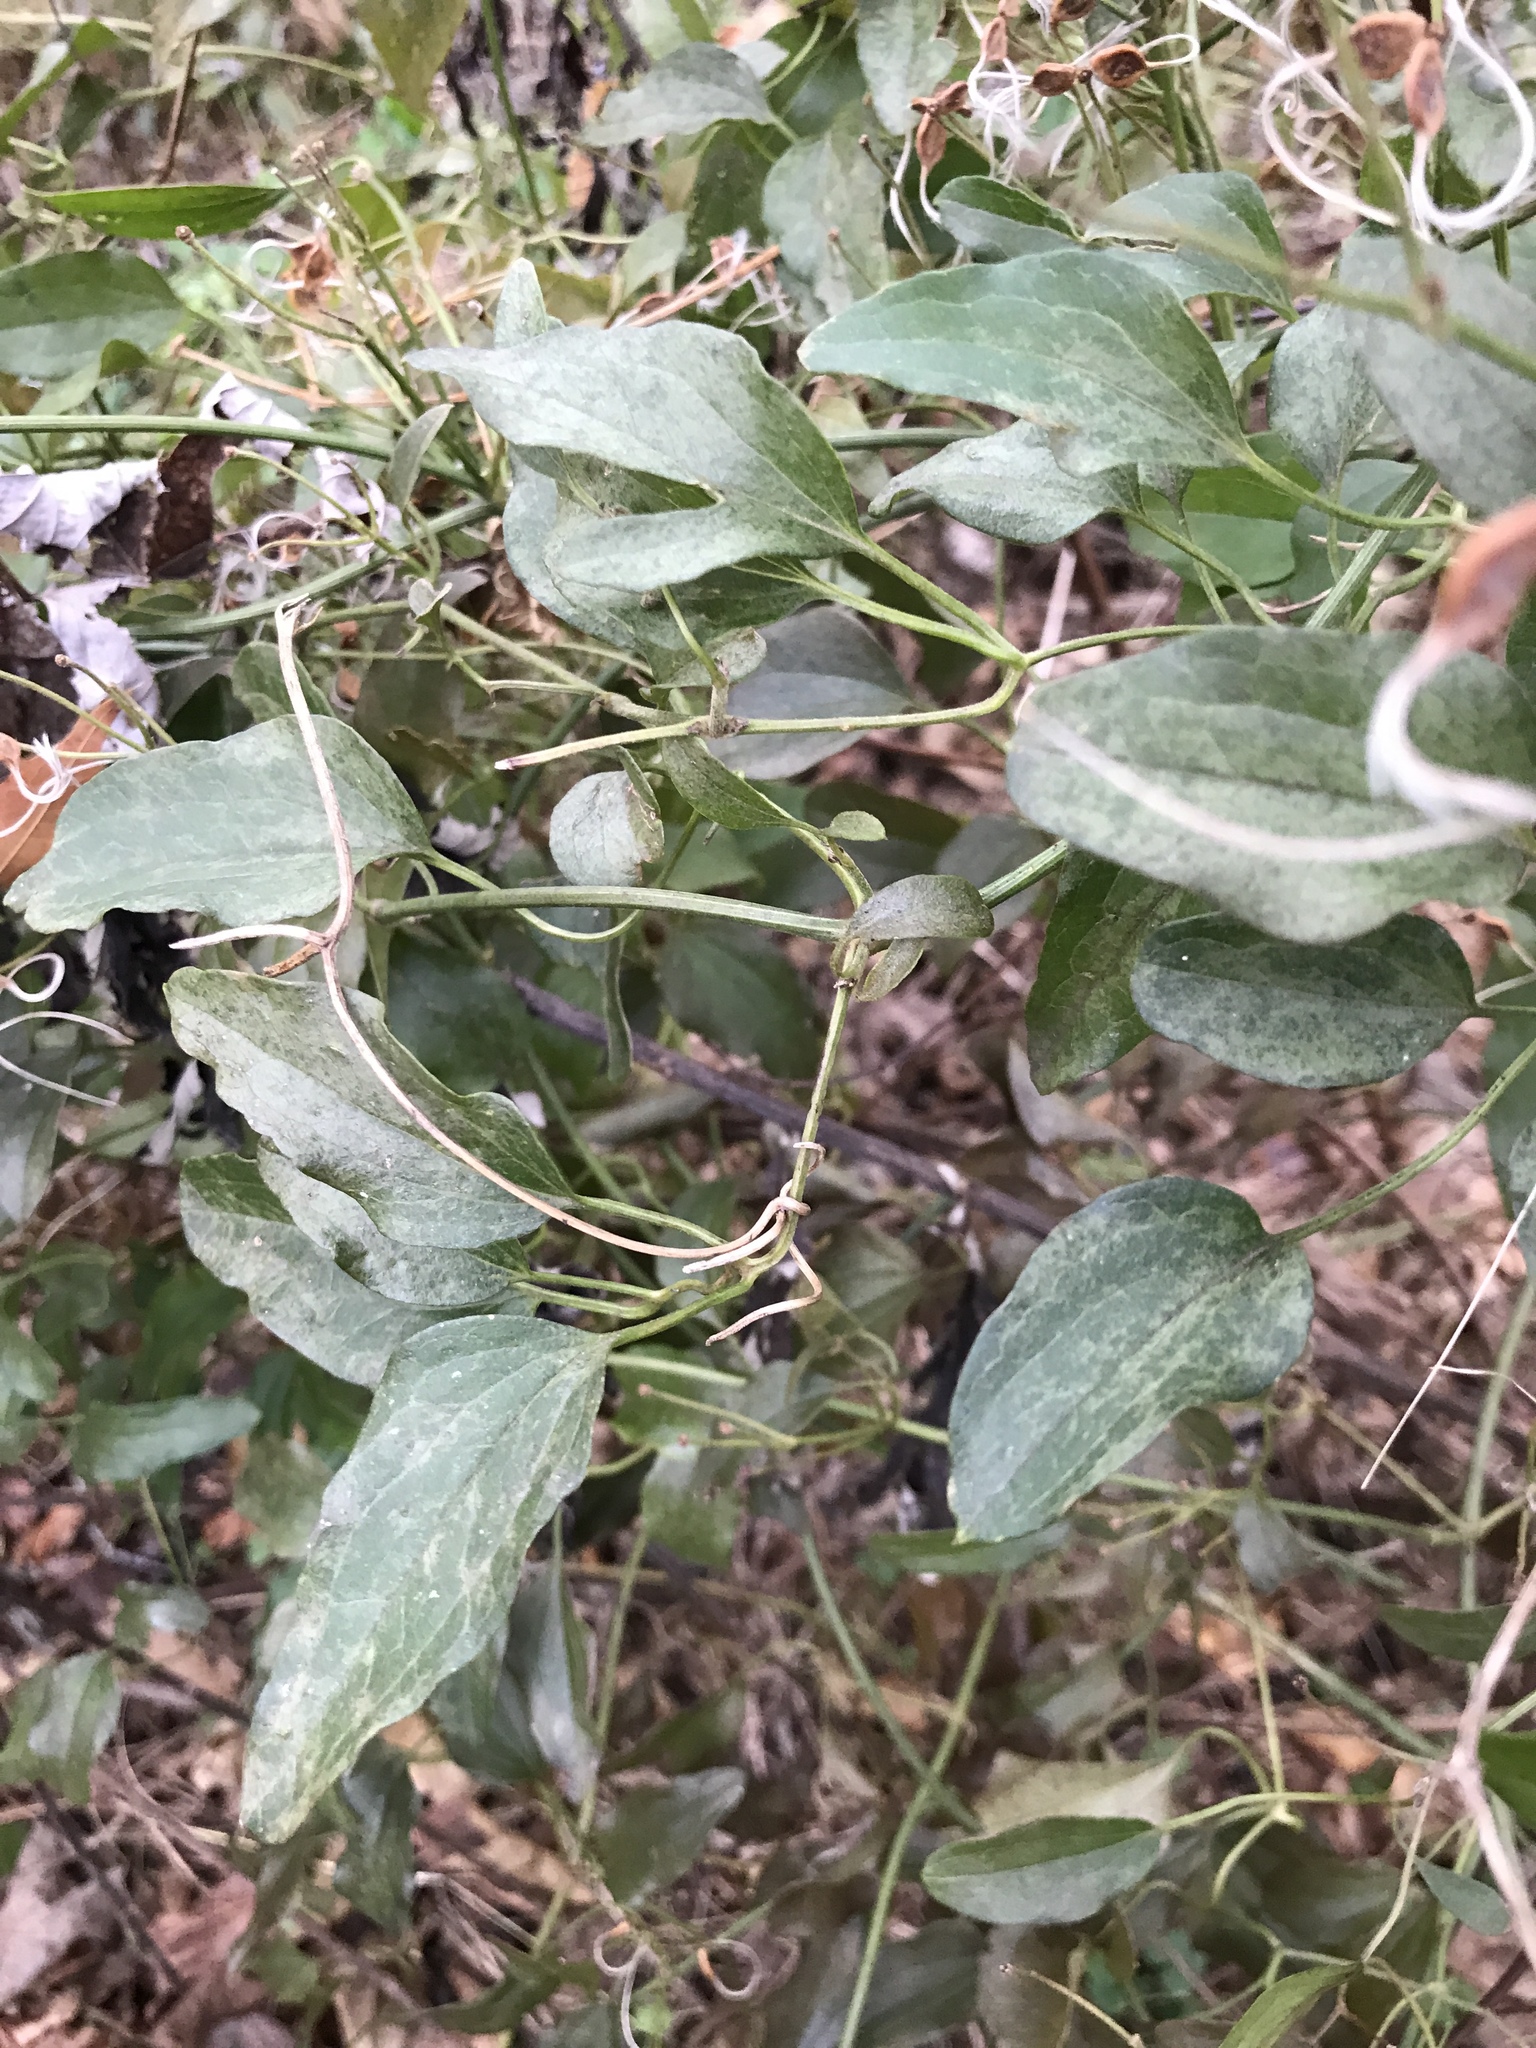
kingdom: Plantae
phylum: Tracheophyta
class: Magnoliopsida
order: Ranunculales
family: Ranunculaceae
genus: Clematis
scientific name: Clematis terniflora
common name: Sweet autumn clematis
